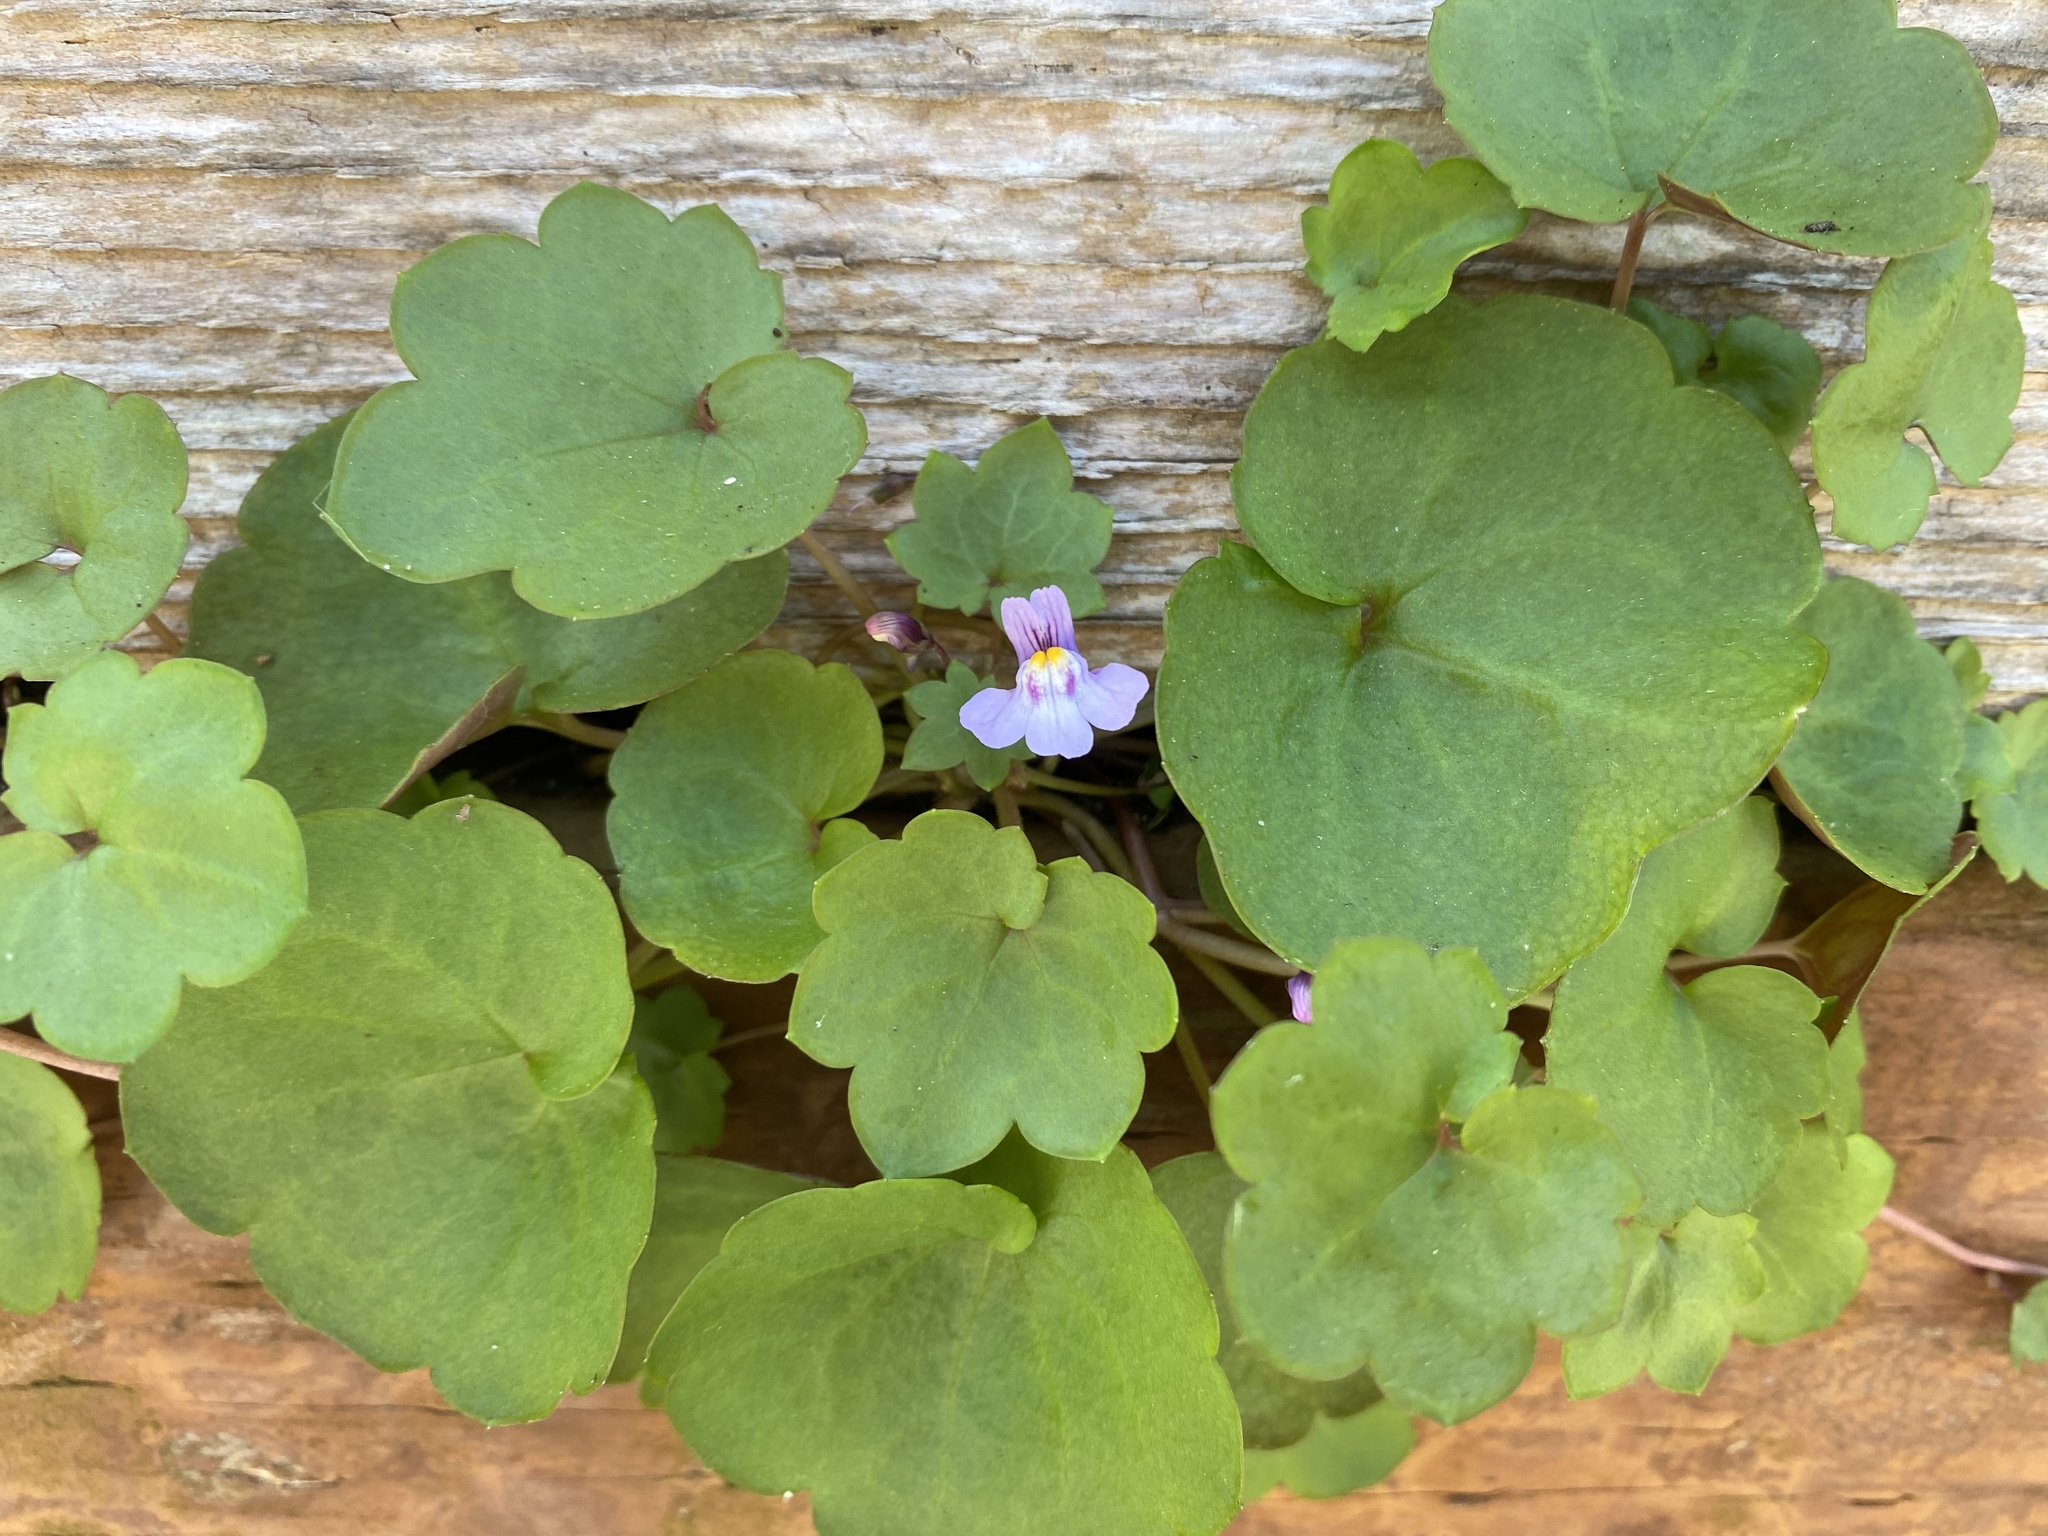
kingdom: Plantae
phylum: Tracheophyta
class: Magnoliopsida
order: Lamiales
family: Plantaginaceae
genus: Cymbalaria
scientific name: Cymbalaria muralis
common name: Ivy-leaved toadflax
